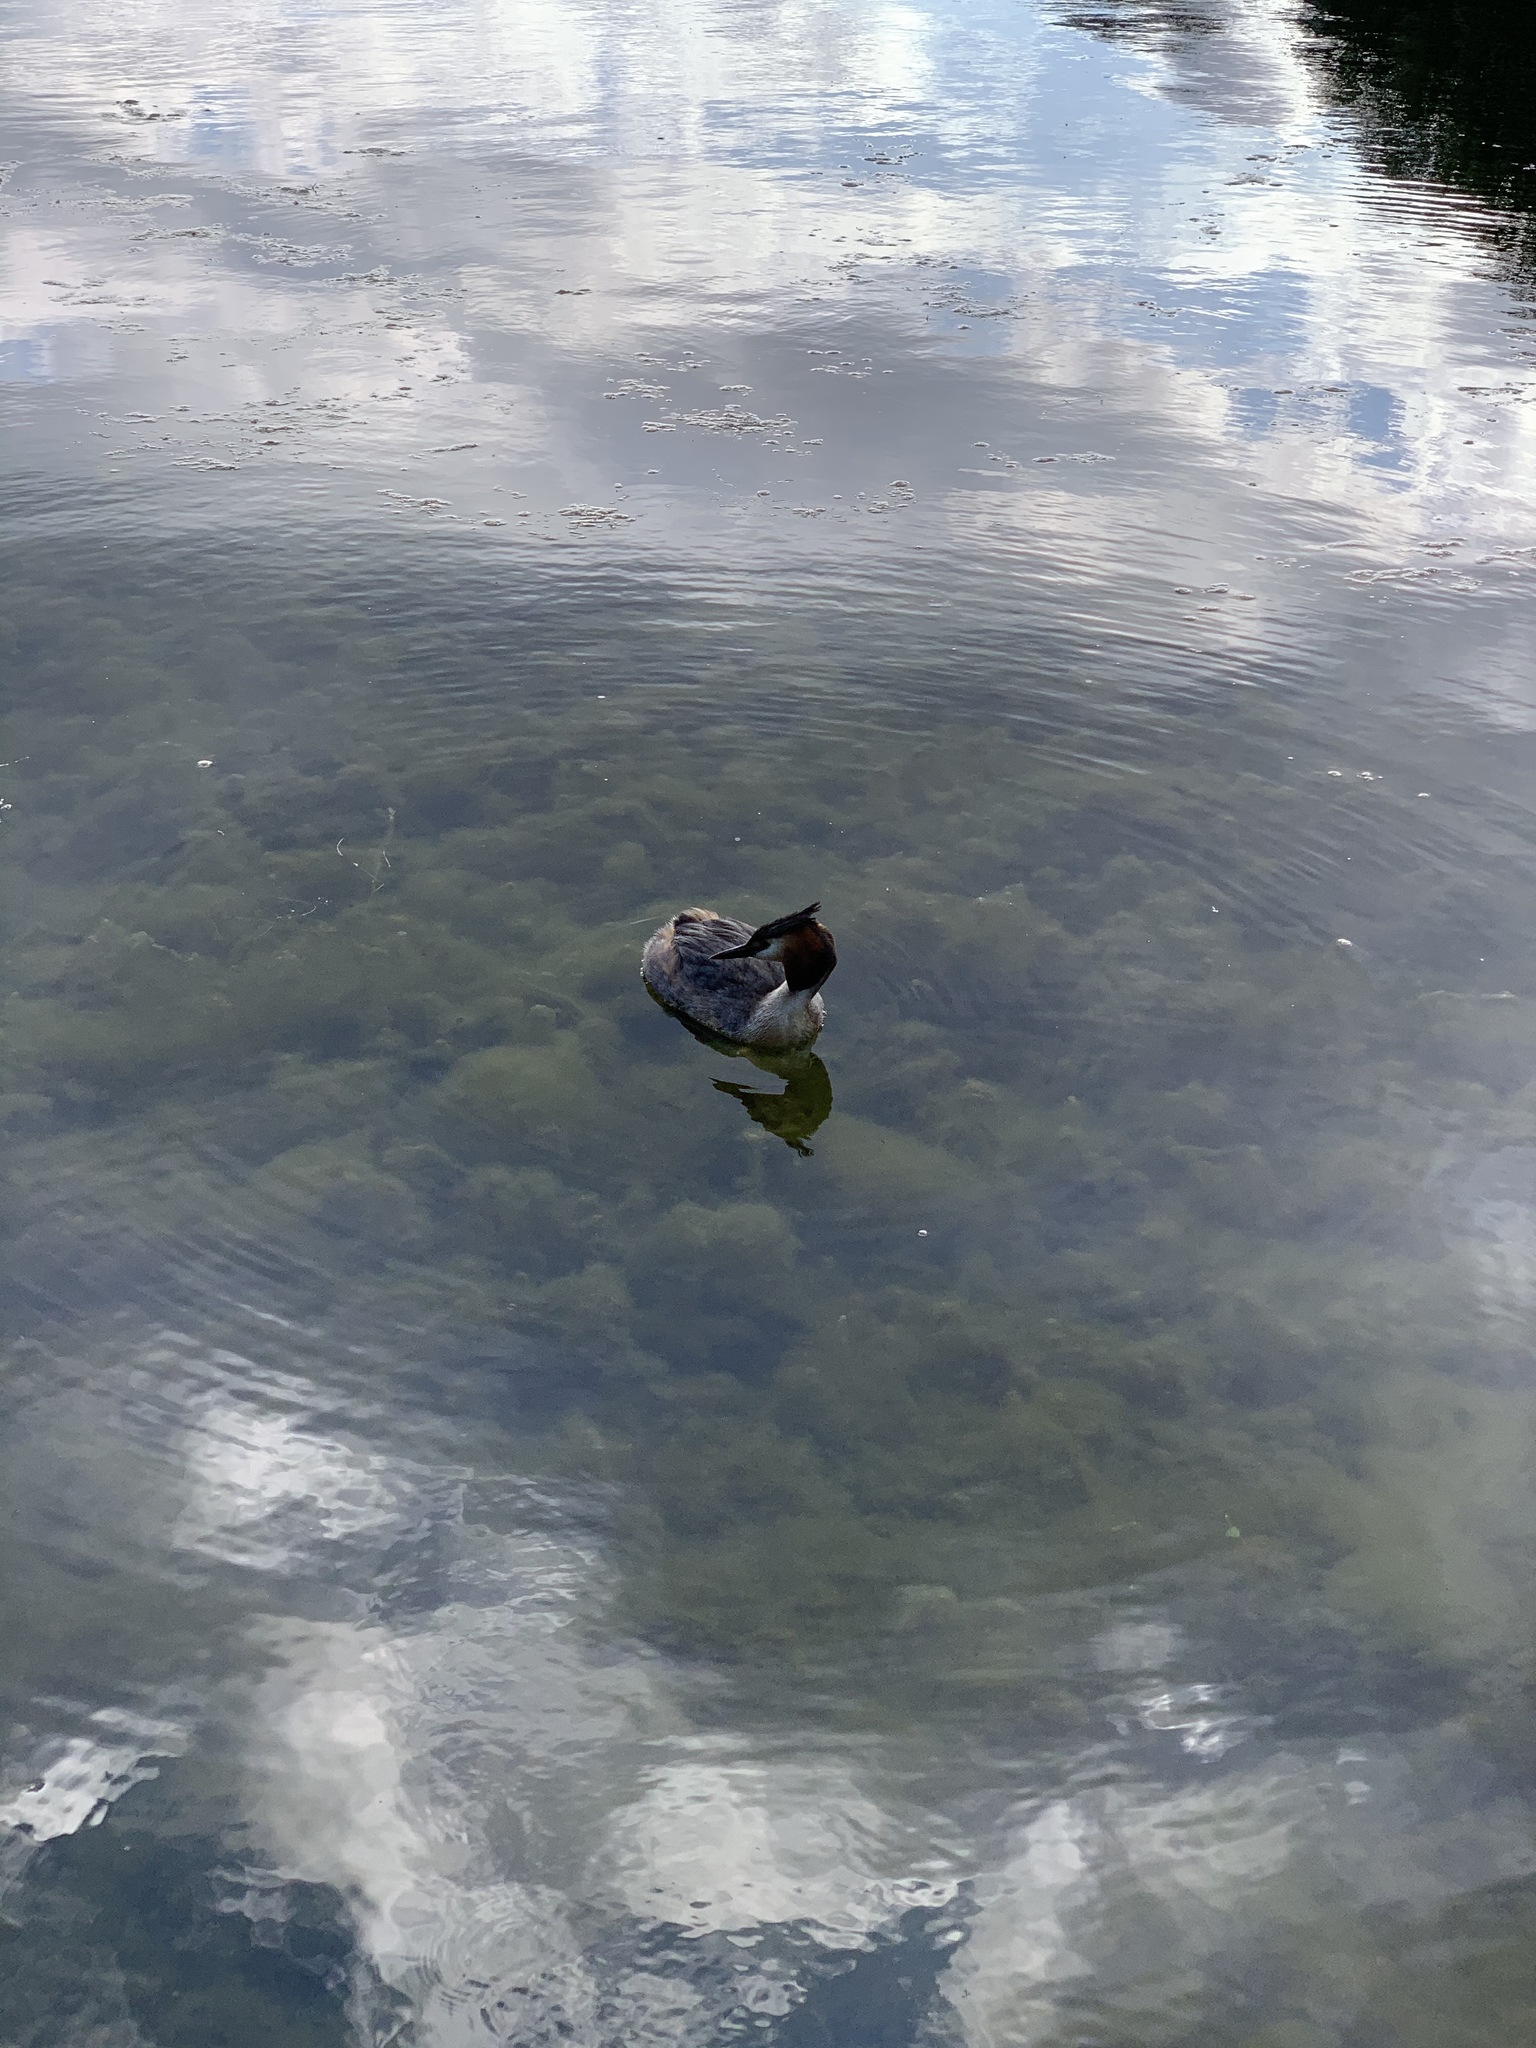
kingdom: Animalia
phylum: Chordata
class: Aves
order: Podicipediformes
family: Podicipedidae
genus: Podiceps
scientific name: Podiceps cristatus
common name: Great crested grebe
